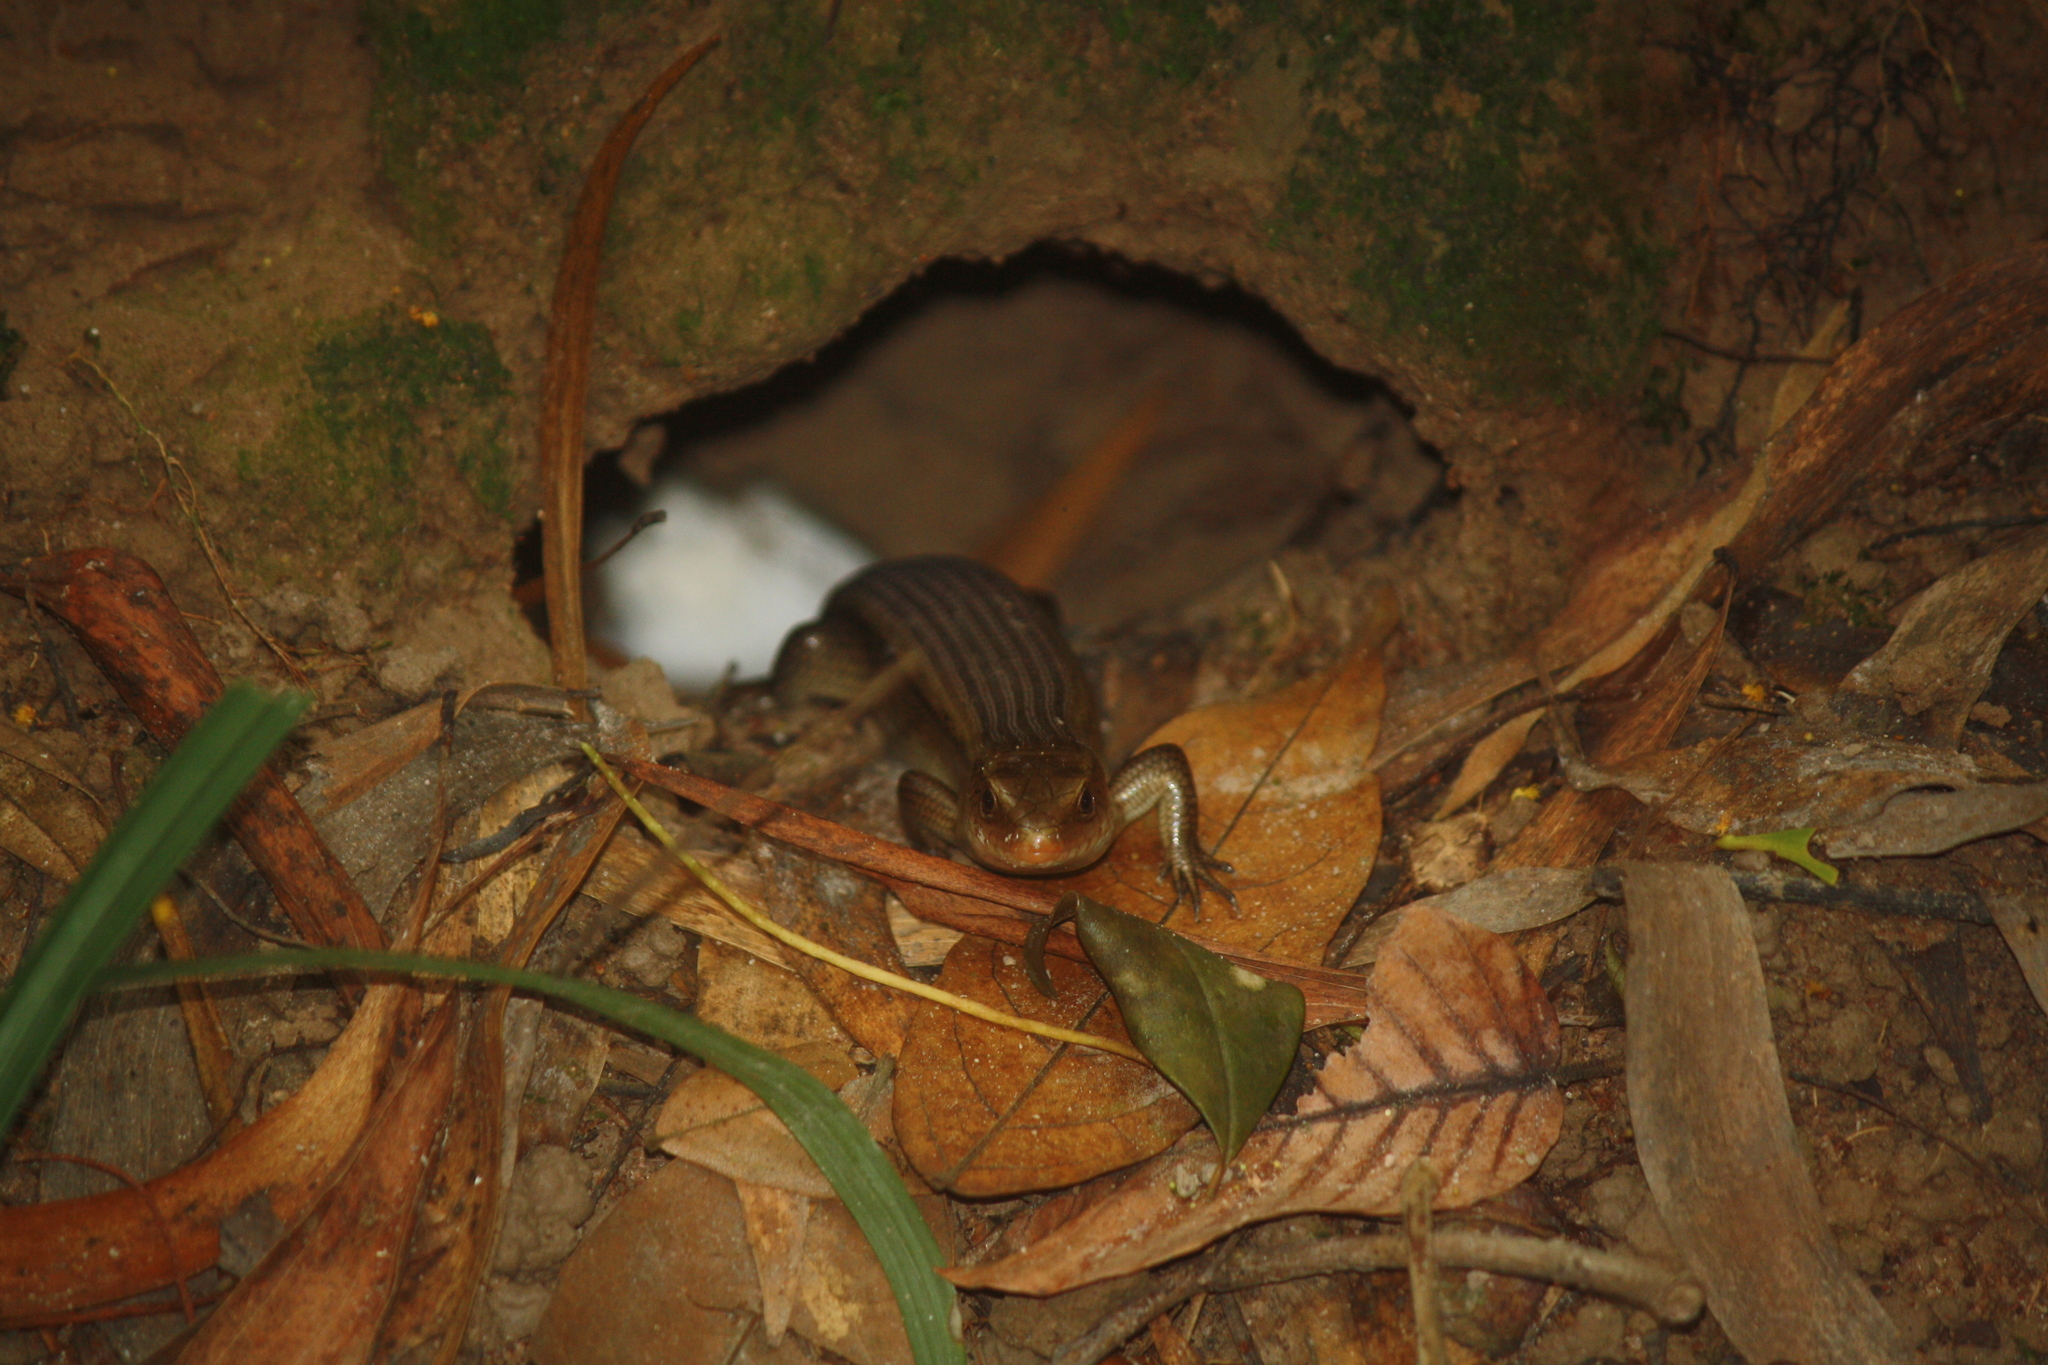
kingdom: Animalia
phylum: Chordata
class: Squamata
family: Scincidae
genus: Eutropis
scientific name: Eutropis multifasciata
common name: Common mabuya
